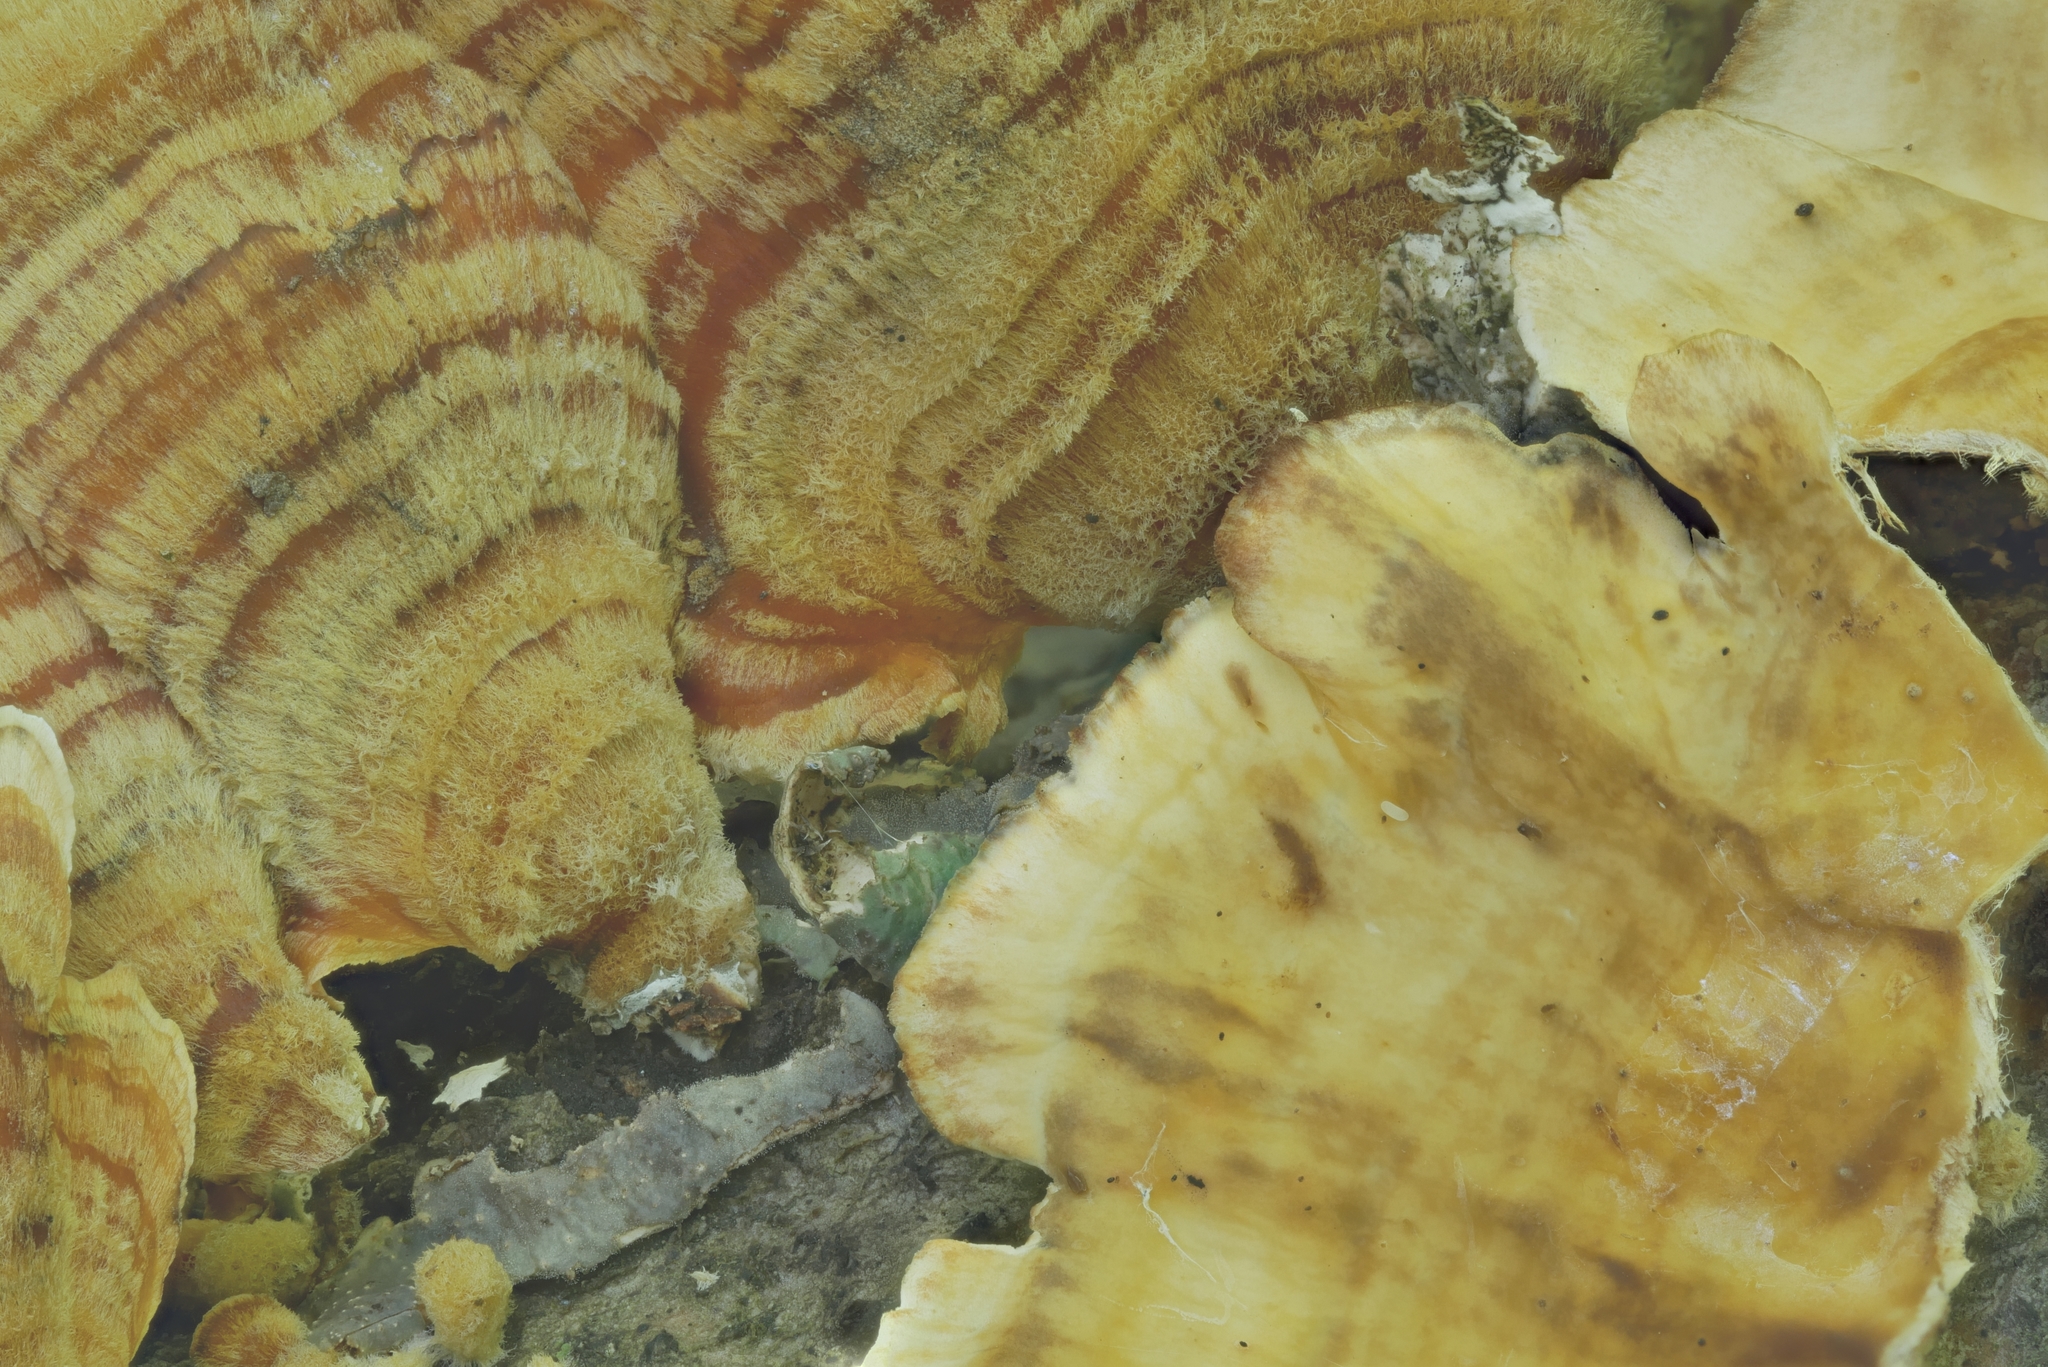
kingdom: Fungi
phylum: Basidiomycota
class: Agaricomycetes
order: Russulales
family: Stereaceae
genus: Stereum
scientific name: Stereum complicatum
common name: Crowded parchment
